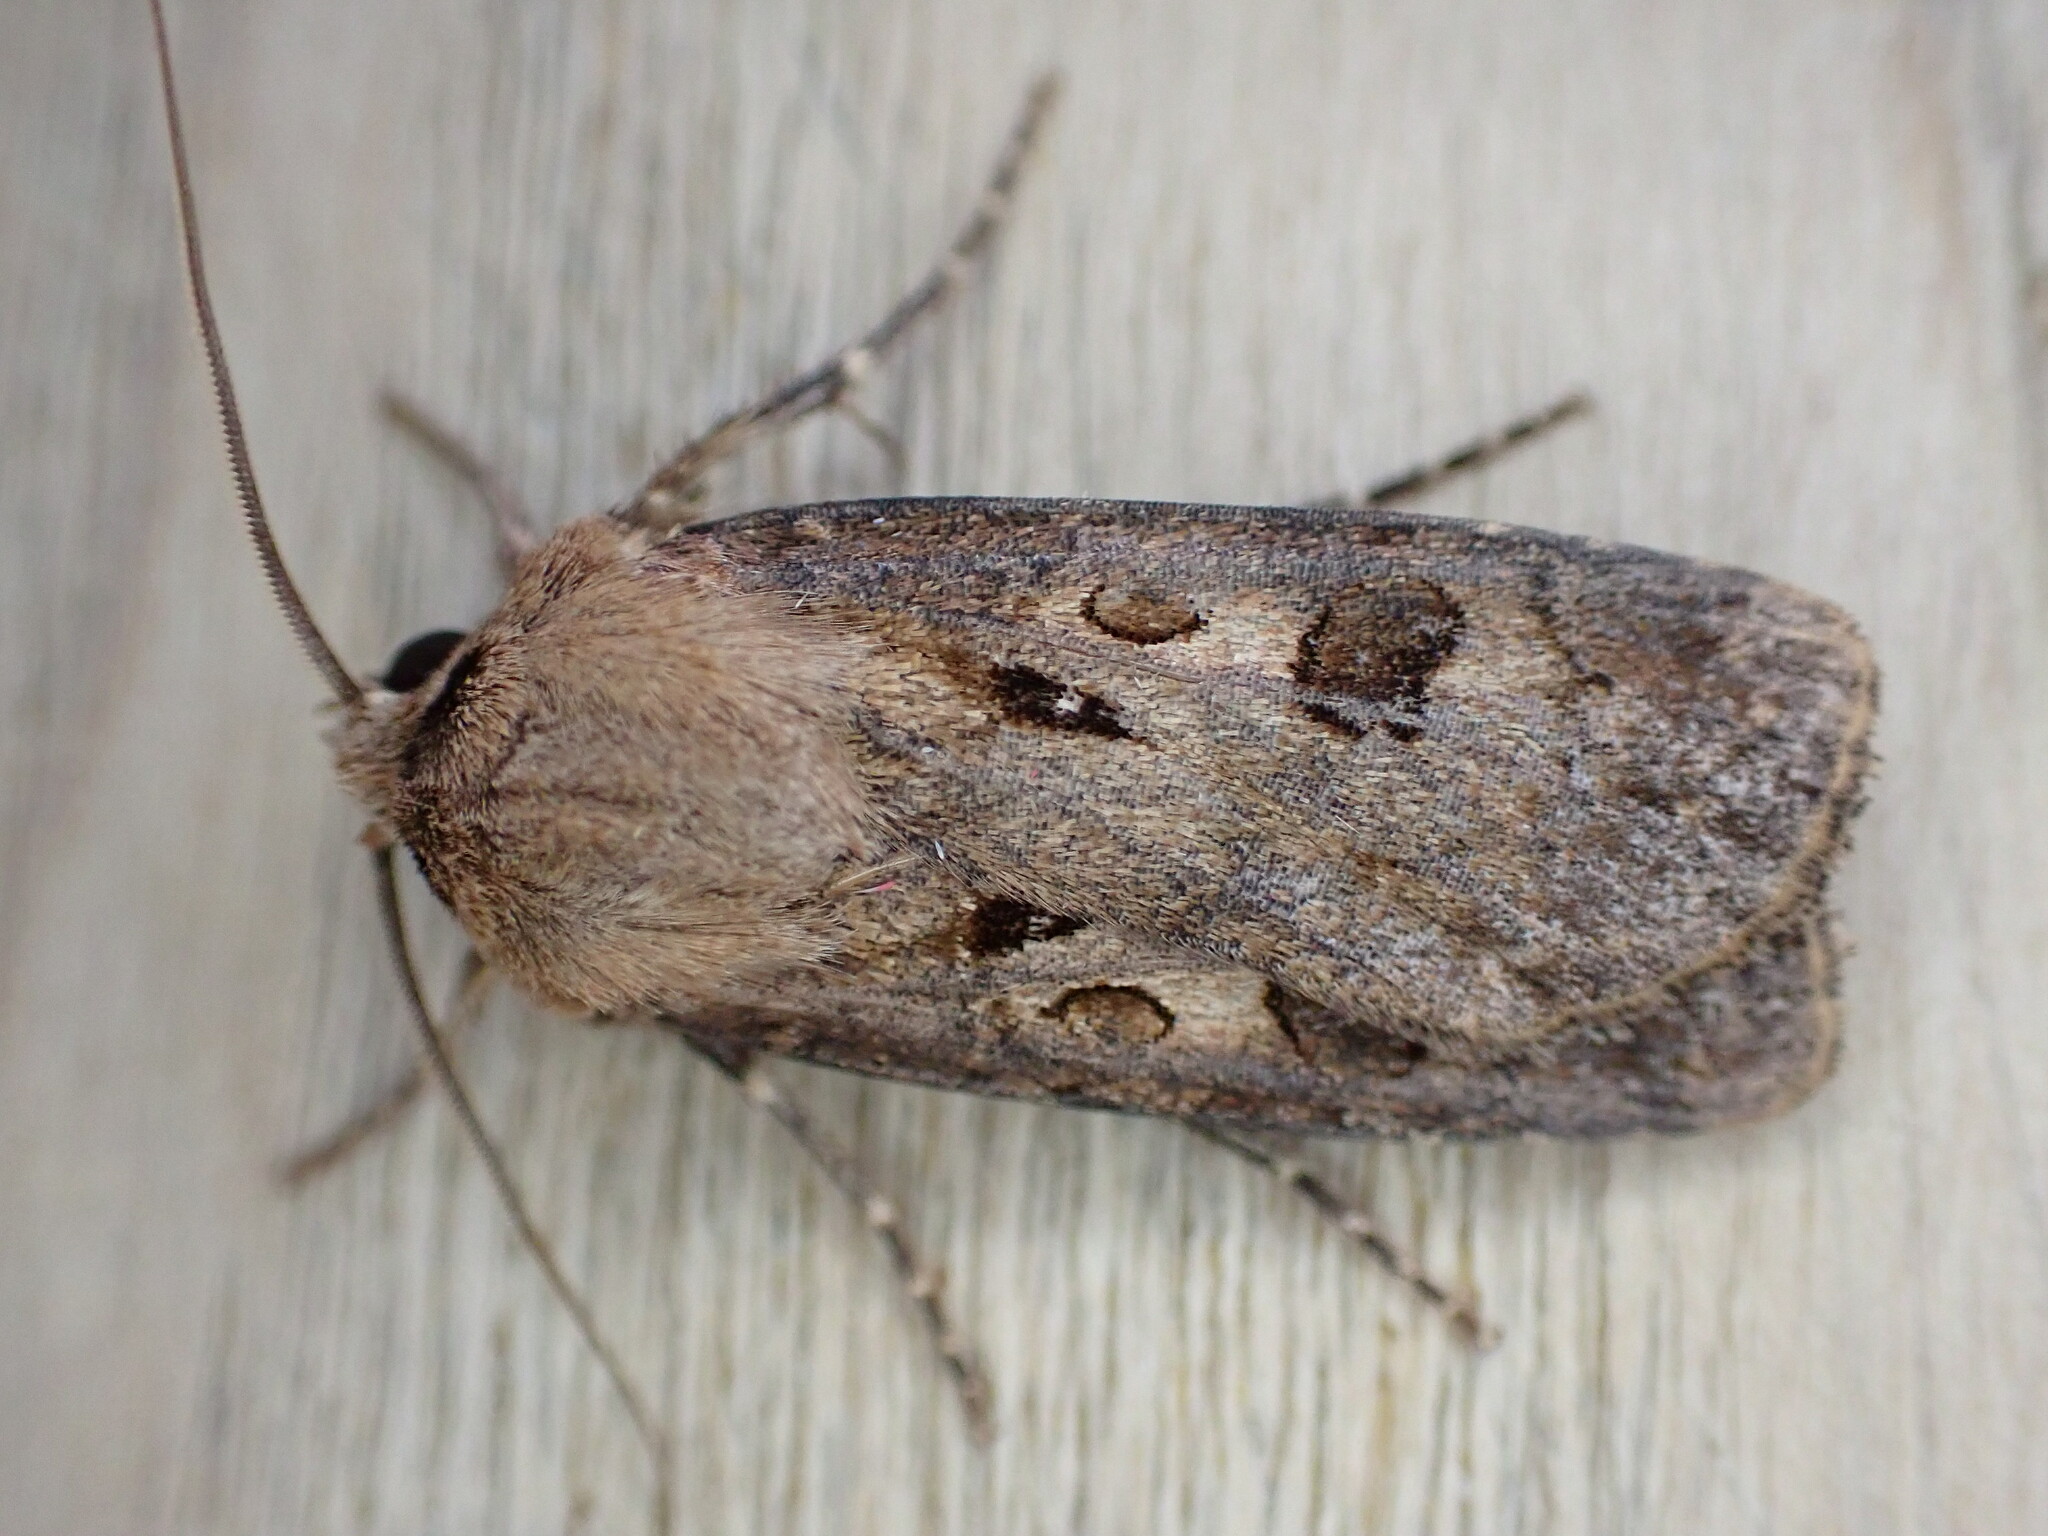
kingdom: Animalia
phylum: Arthropoda
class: Insecta
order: Lepidoptera
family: Noctuidae
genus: Agrotis
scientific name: Agrotis exclamationis
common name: Heart and dart
